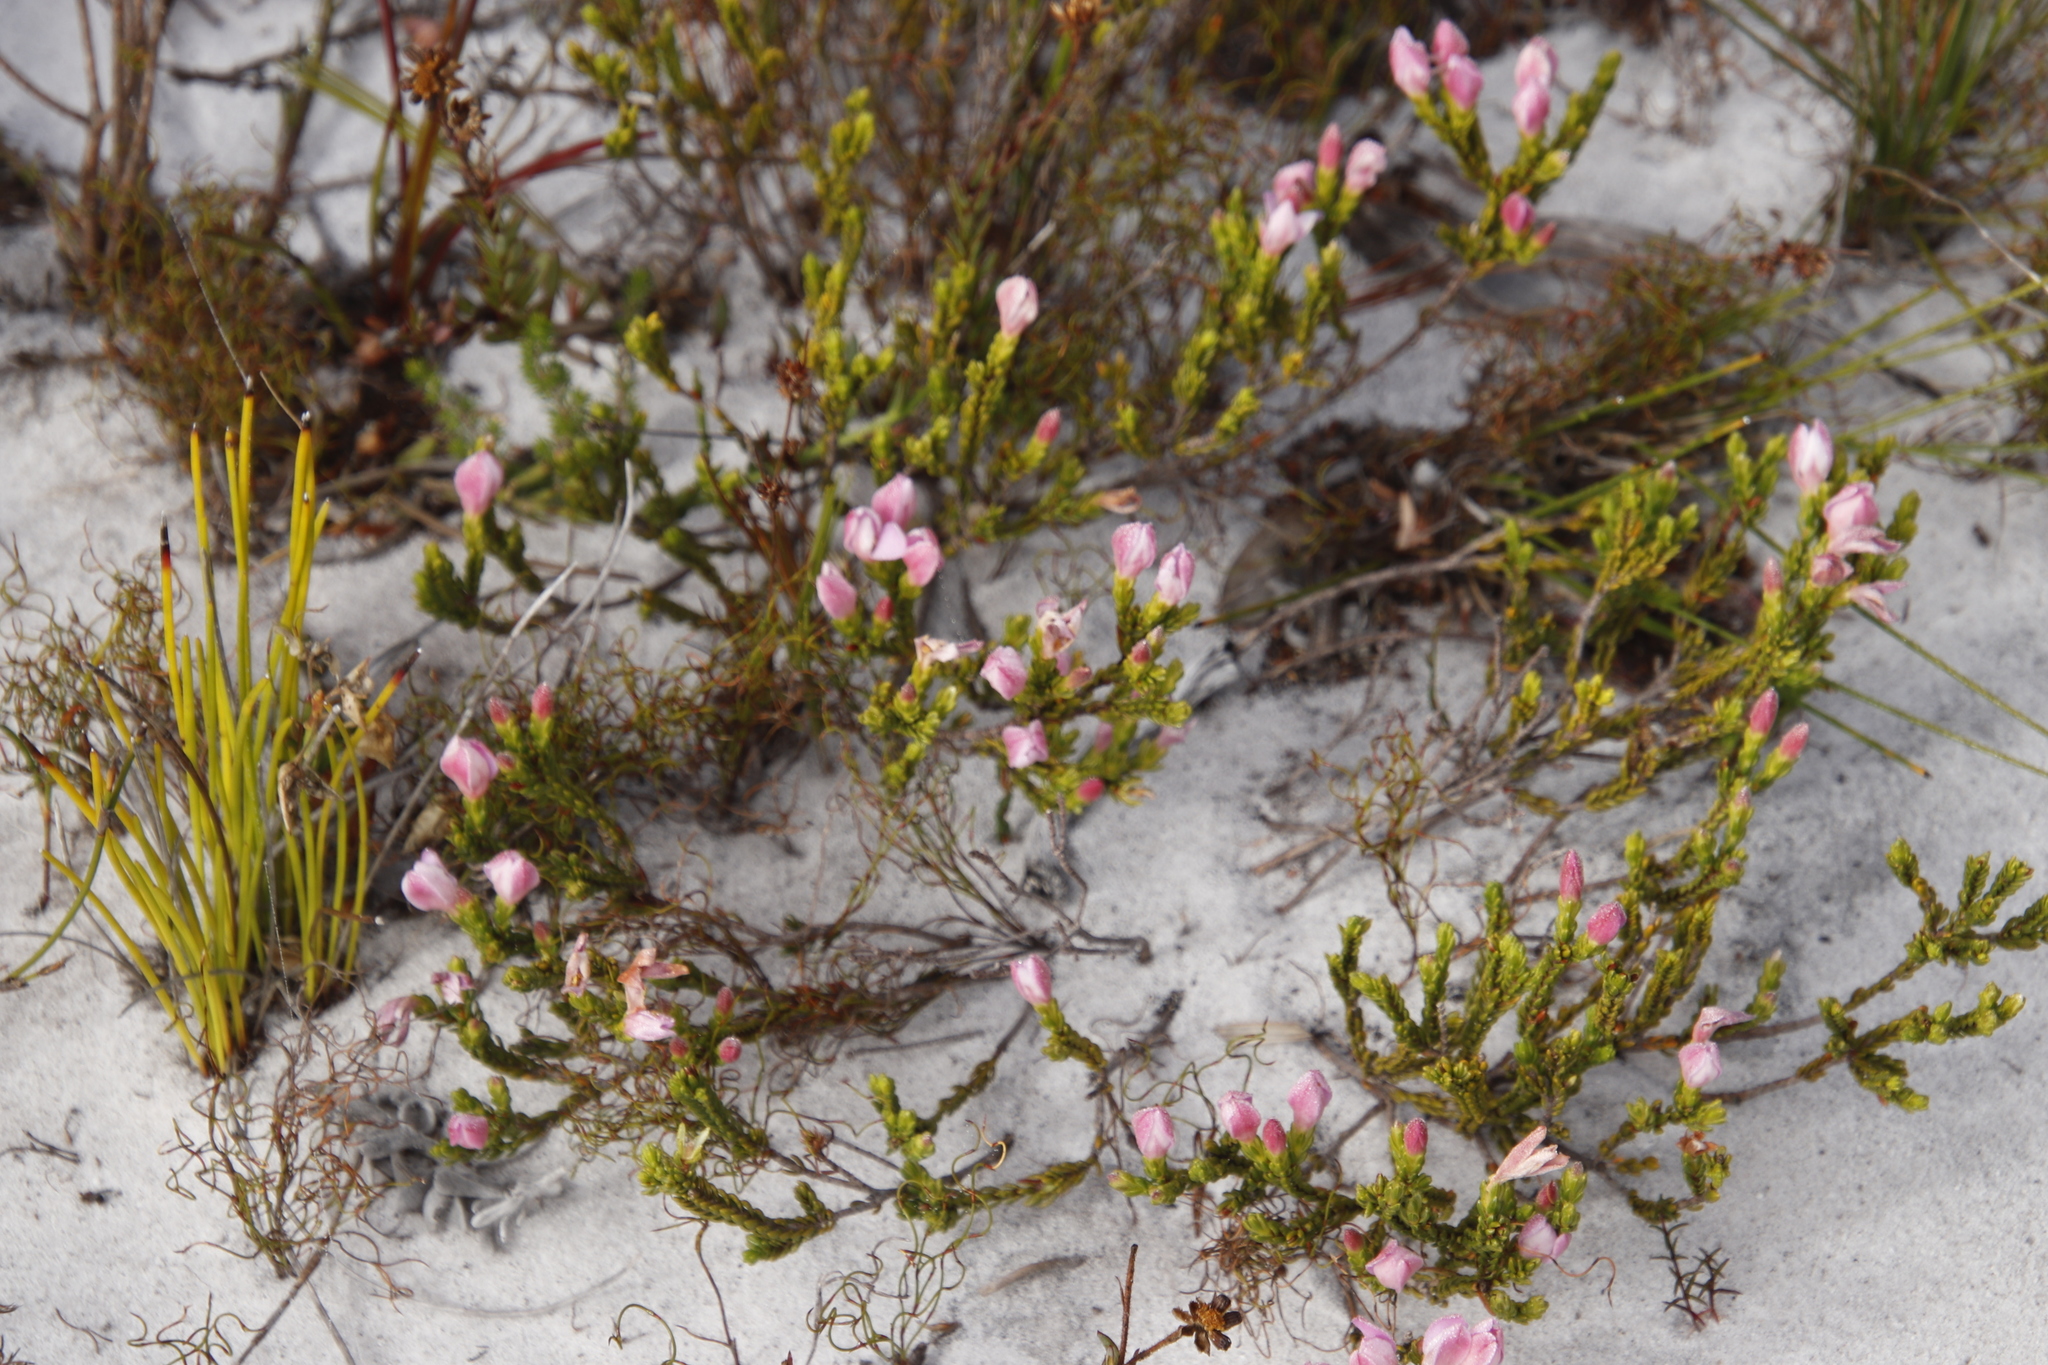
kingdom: Plantae
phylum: Tracheophyta
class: Magnoliopsida
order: Malvales
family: Thymelaeaceae
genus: Lachnaea
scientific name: Lachnaea grandiflora
